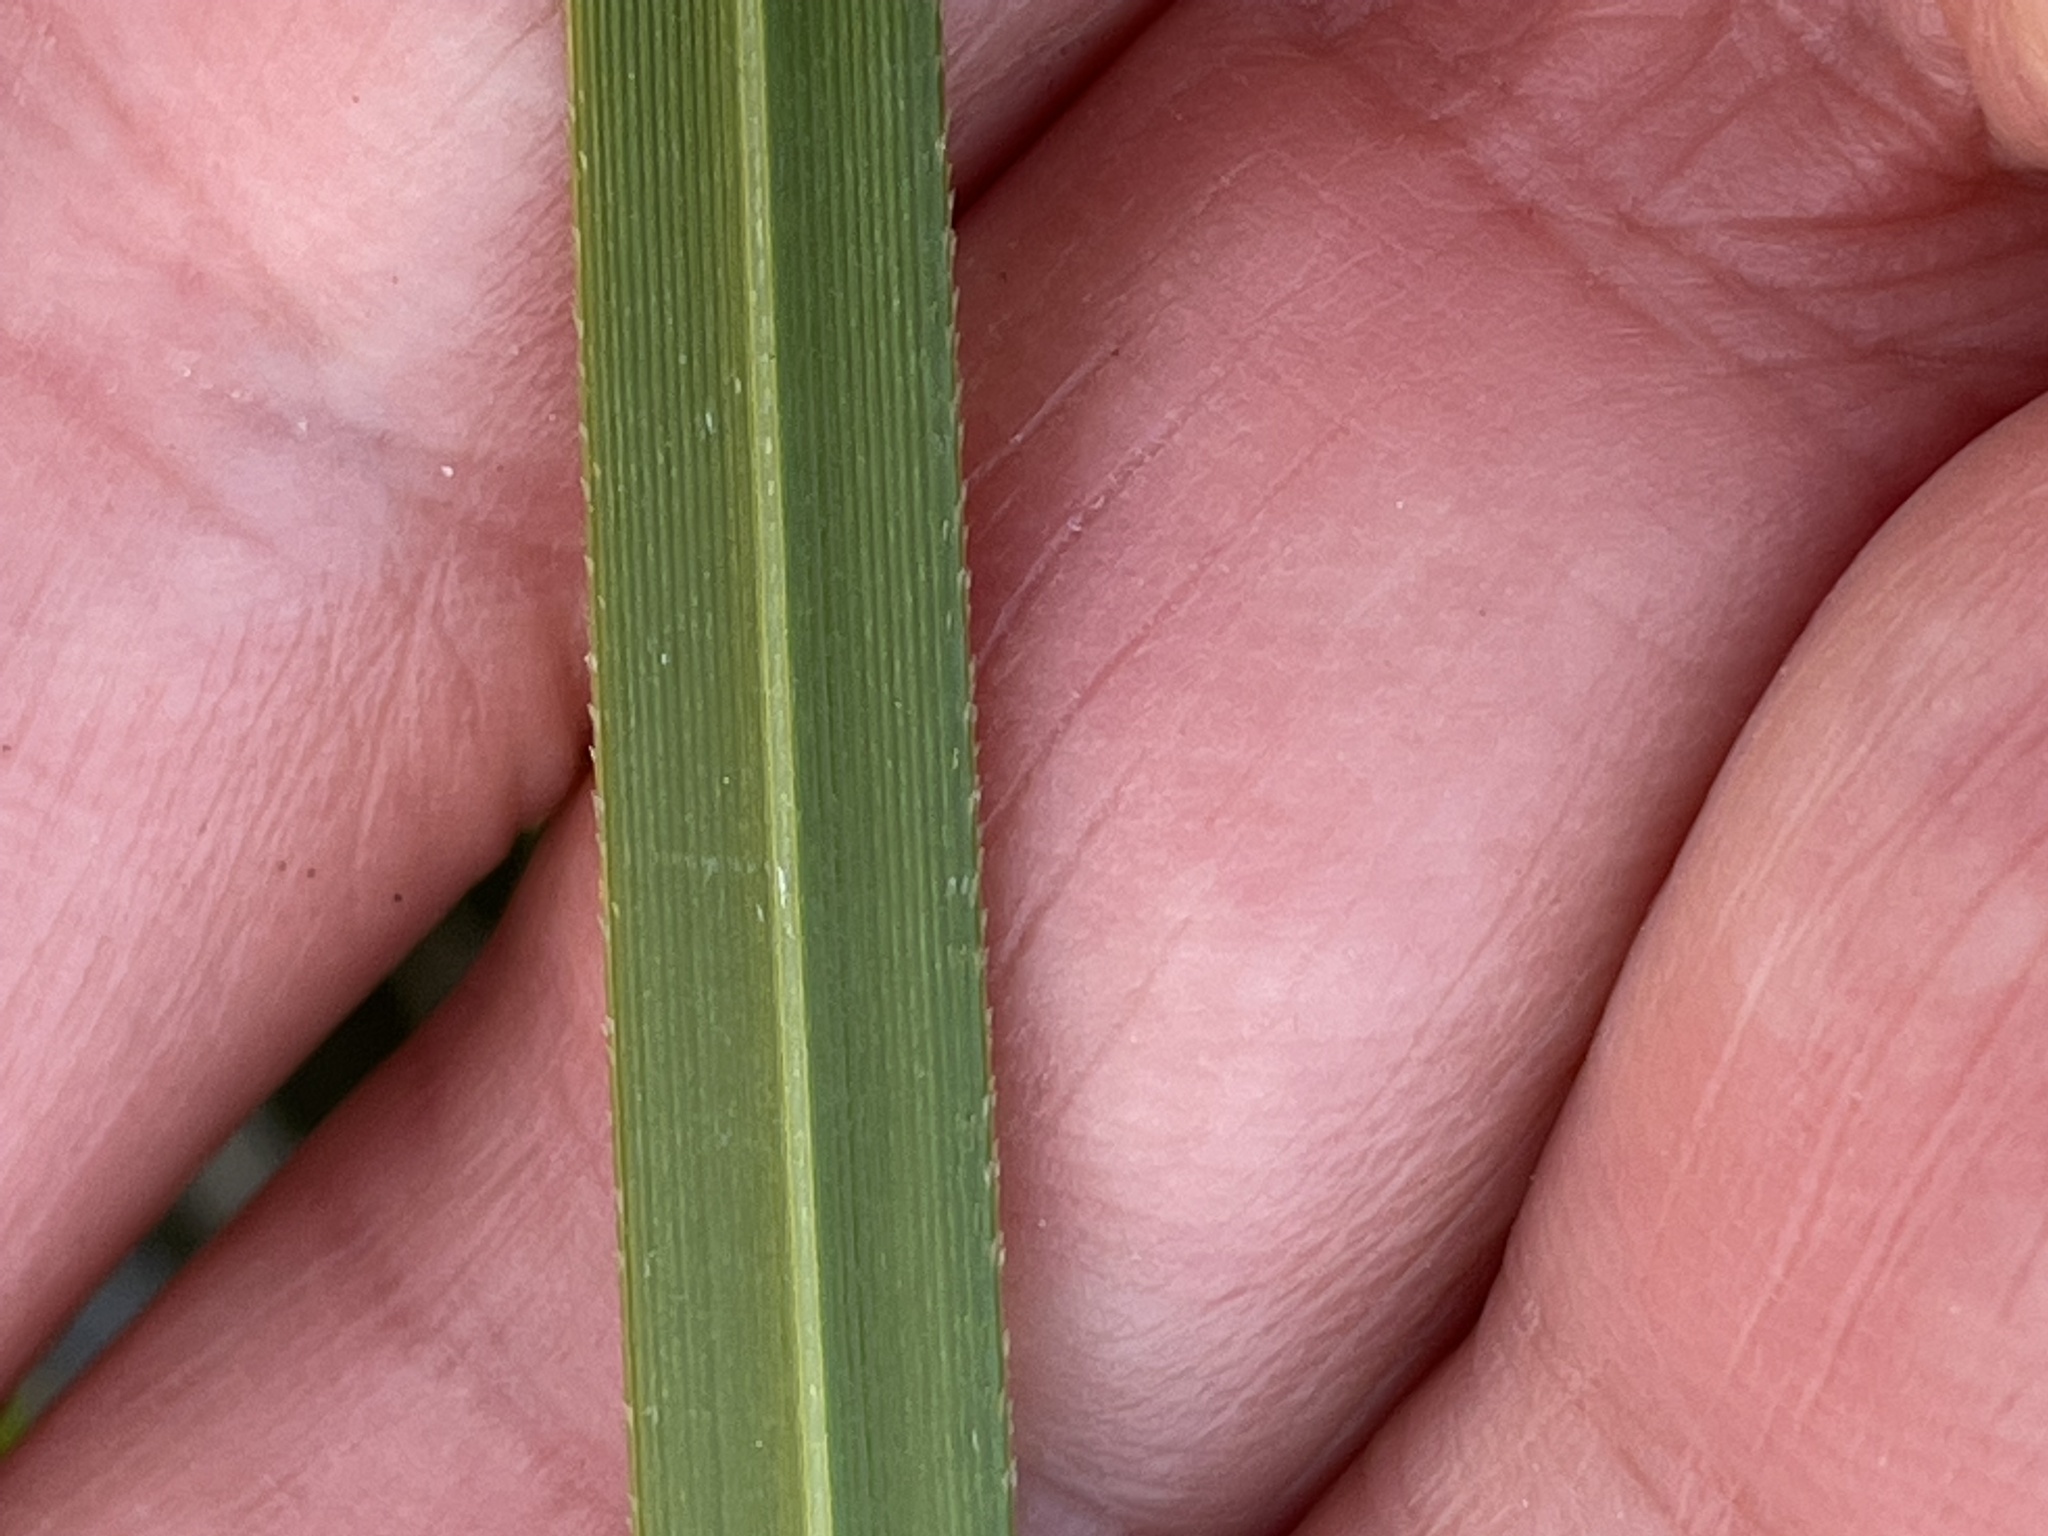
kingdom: Plantae
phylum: Tracheophyta
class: Liliopsida
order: Poales
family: Poaceae
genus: Cortaderia
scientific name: Cortaderia jubata
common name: Purple pampas grass
